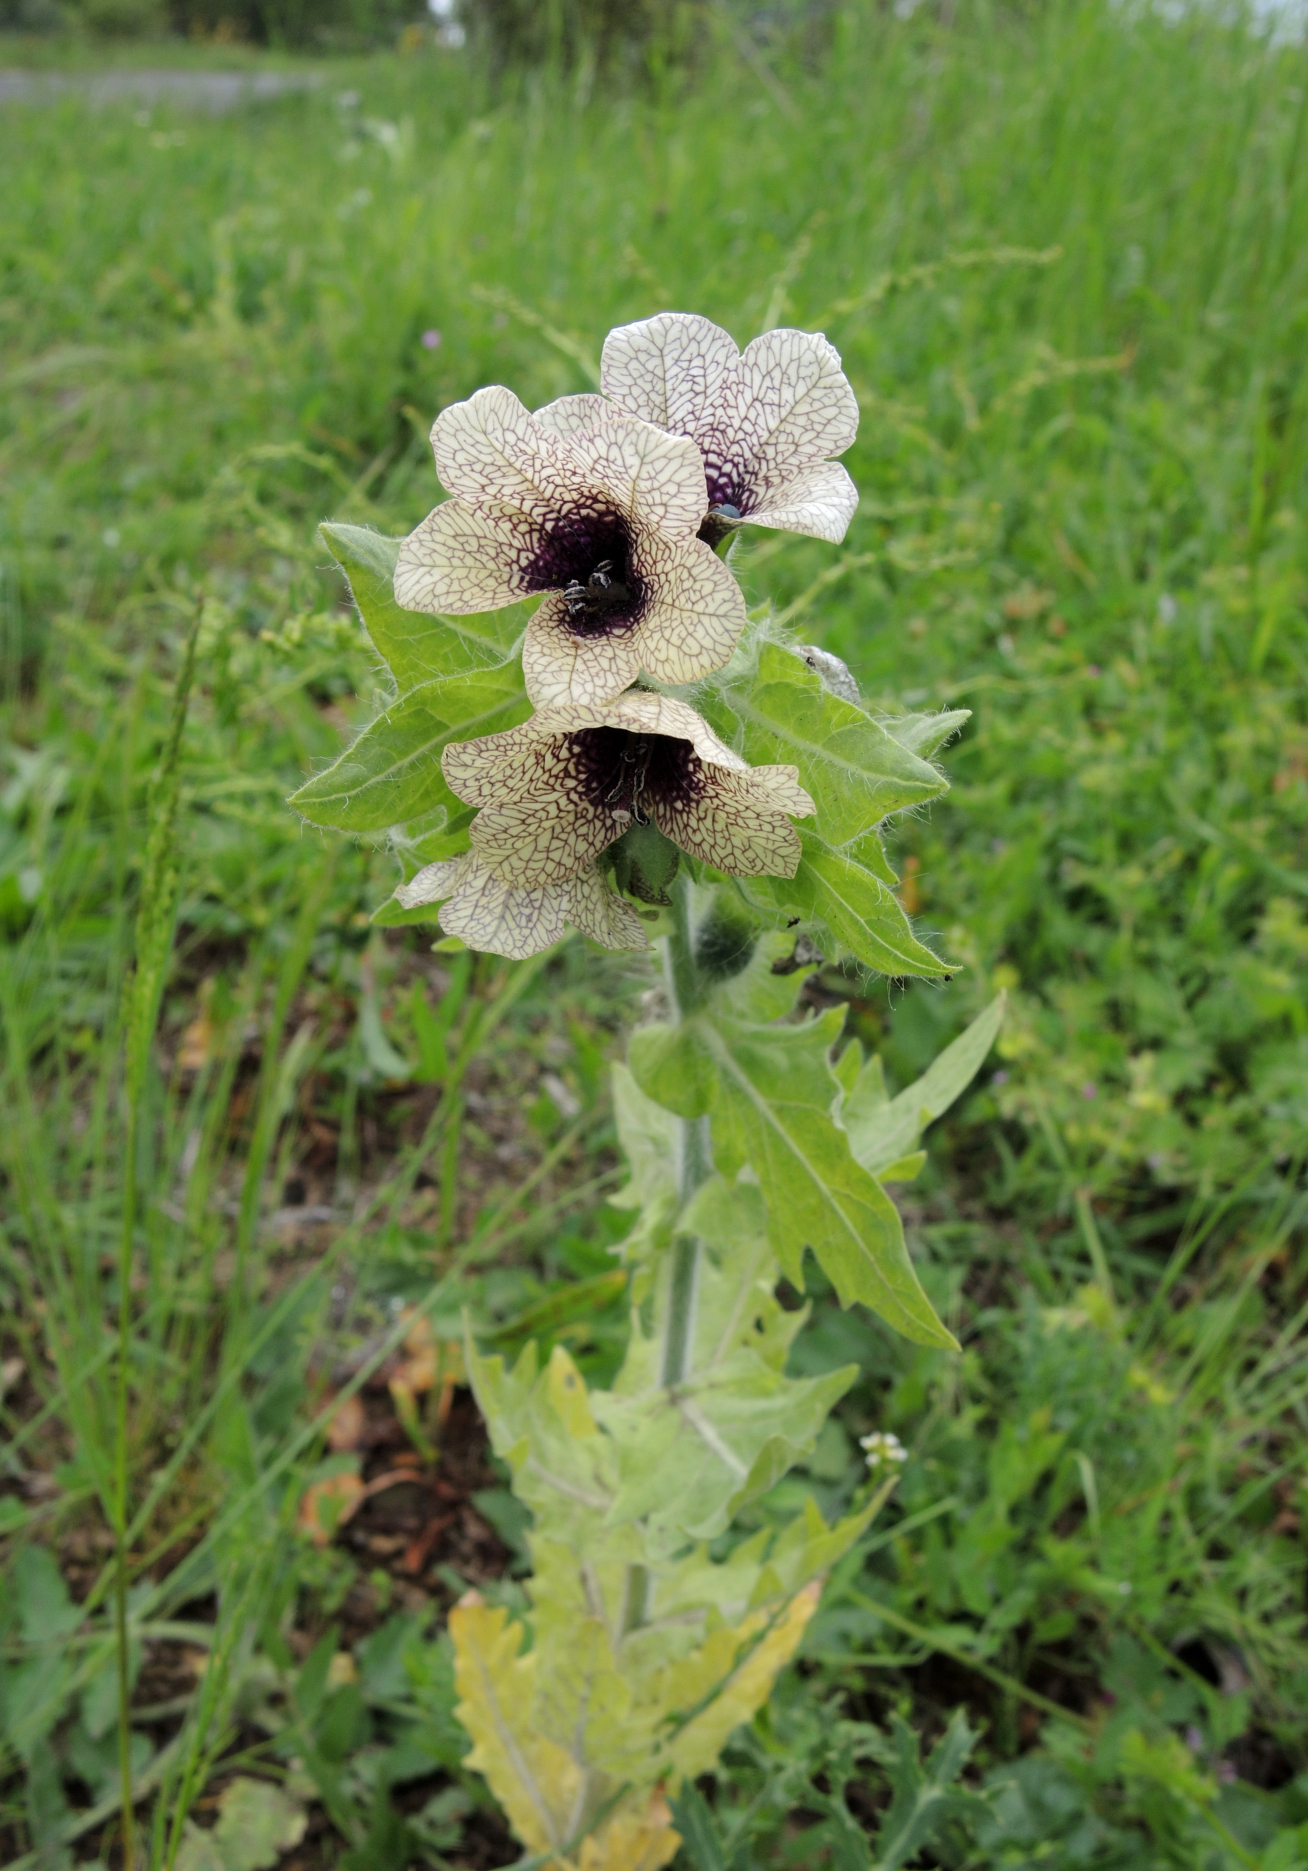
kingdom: Plantae
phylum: Tracheophyta
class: Magnoliopsida
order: Solanales
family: Solanaceae
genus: Hyoscyamus
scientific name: Hyoscyamus niger
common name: Henbane
